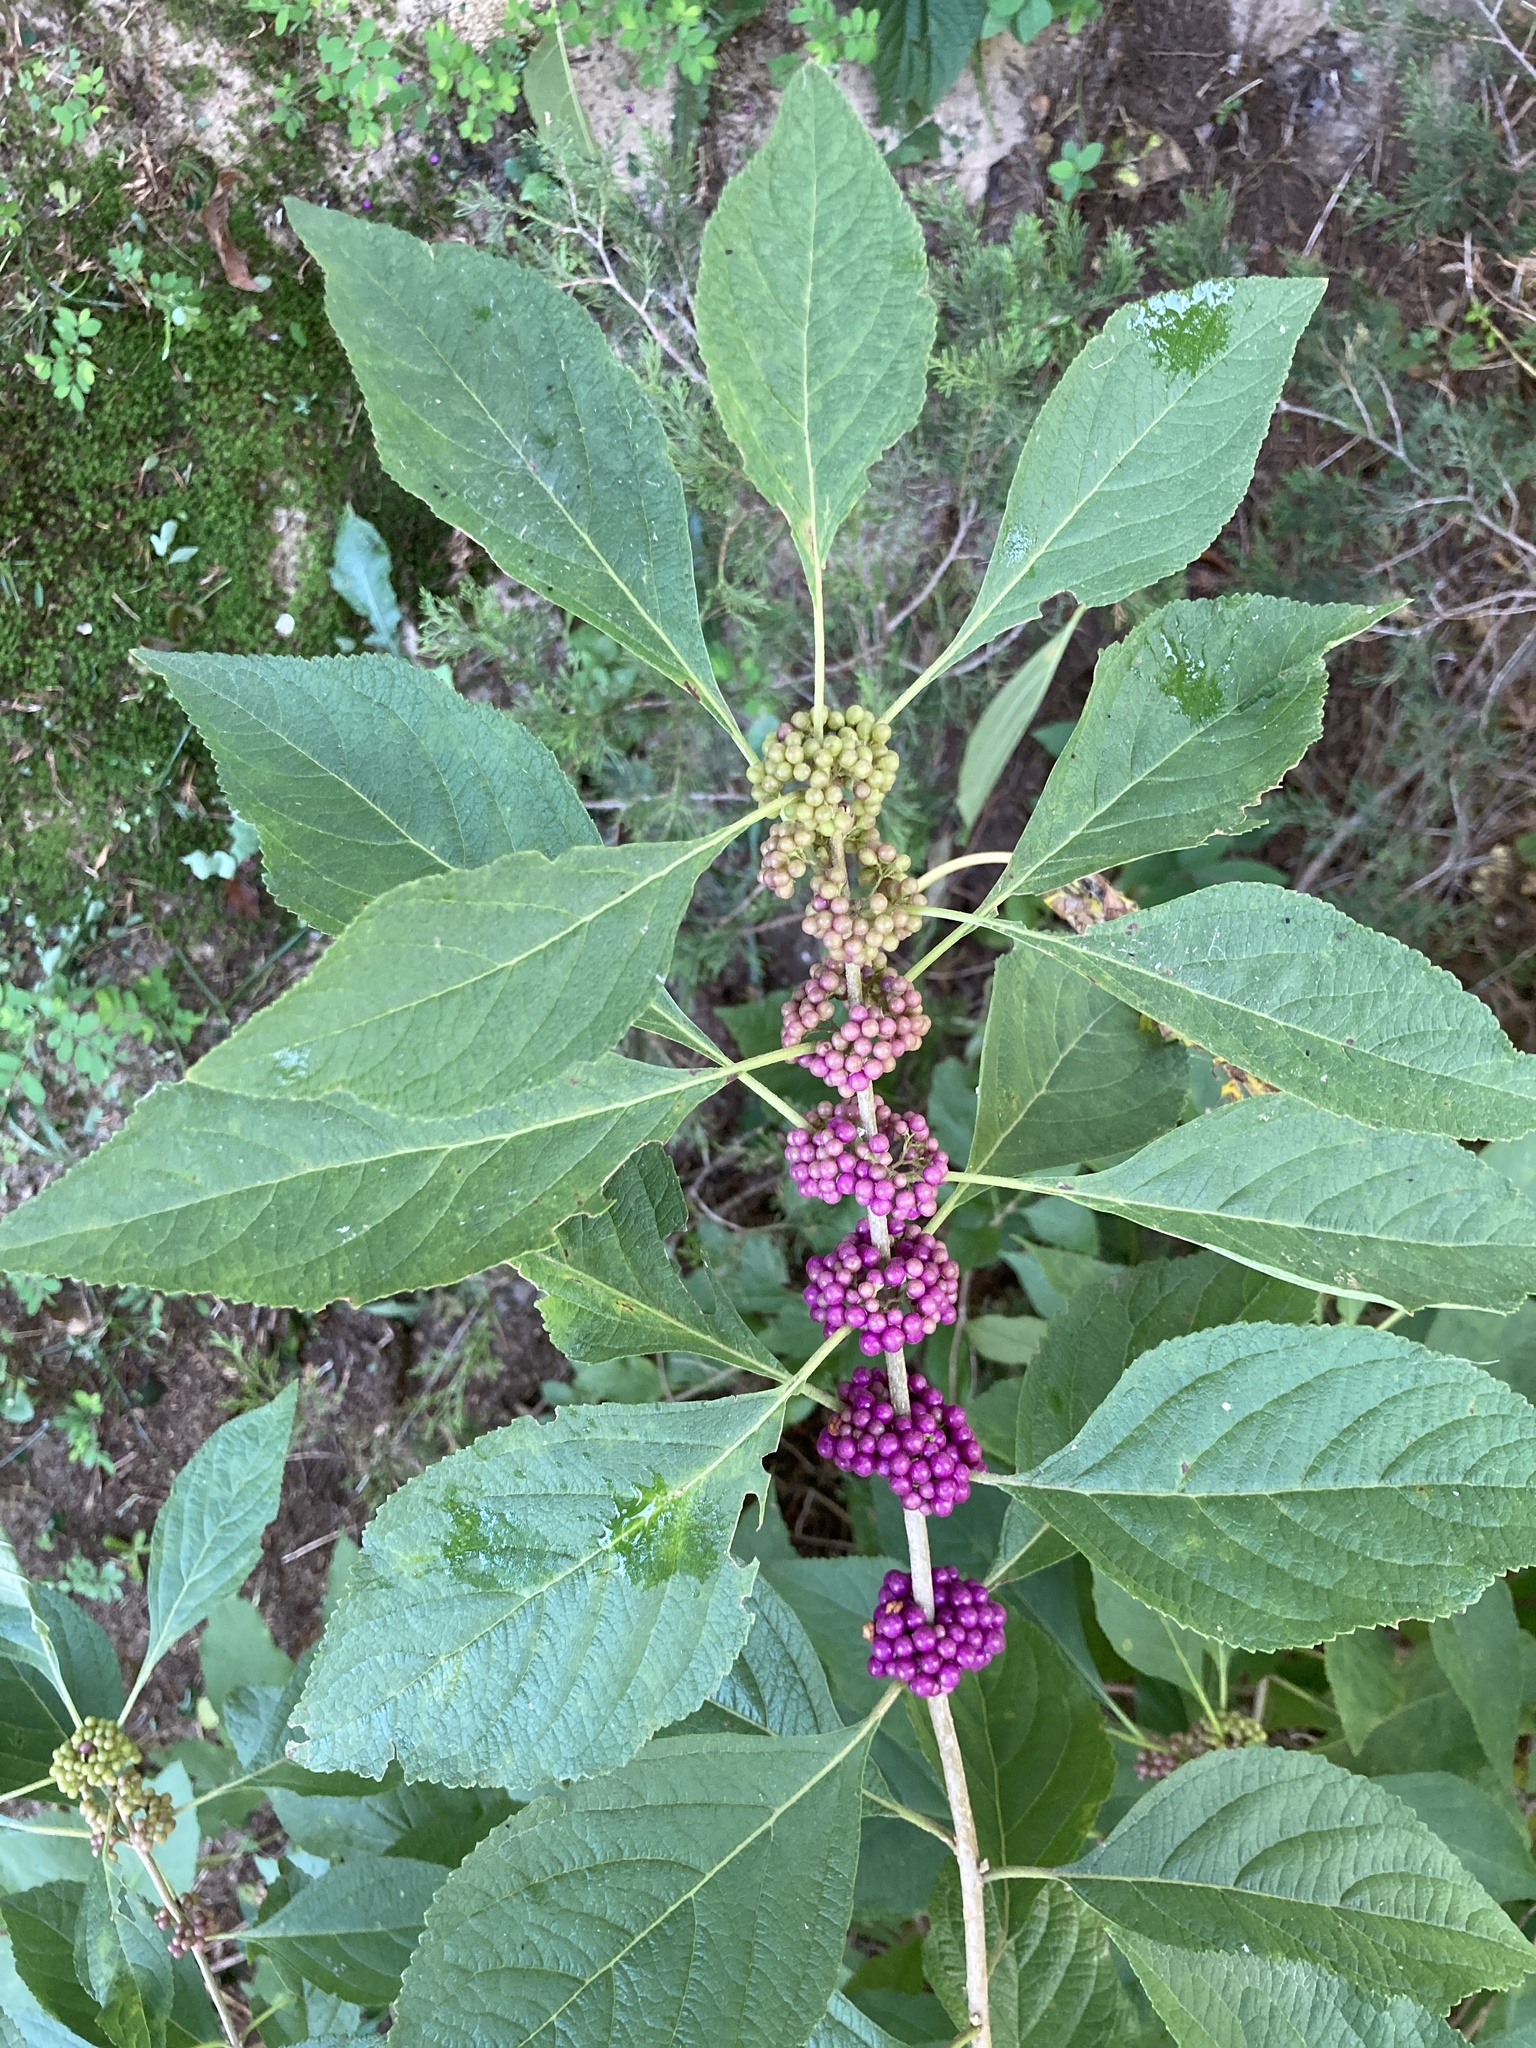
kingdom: Plantae
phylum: Tracheophyta
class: Magnoliopsida
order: Lamiales
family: Lamiaceae
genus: Callicarpa
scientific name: Callicarpa americana
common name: American beautyberry
